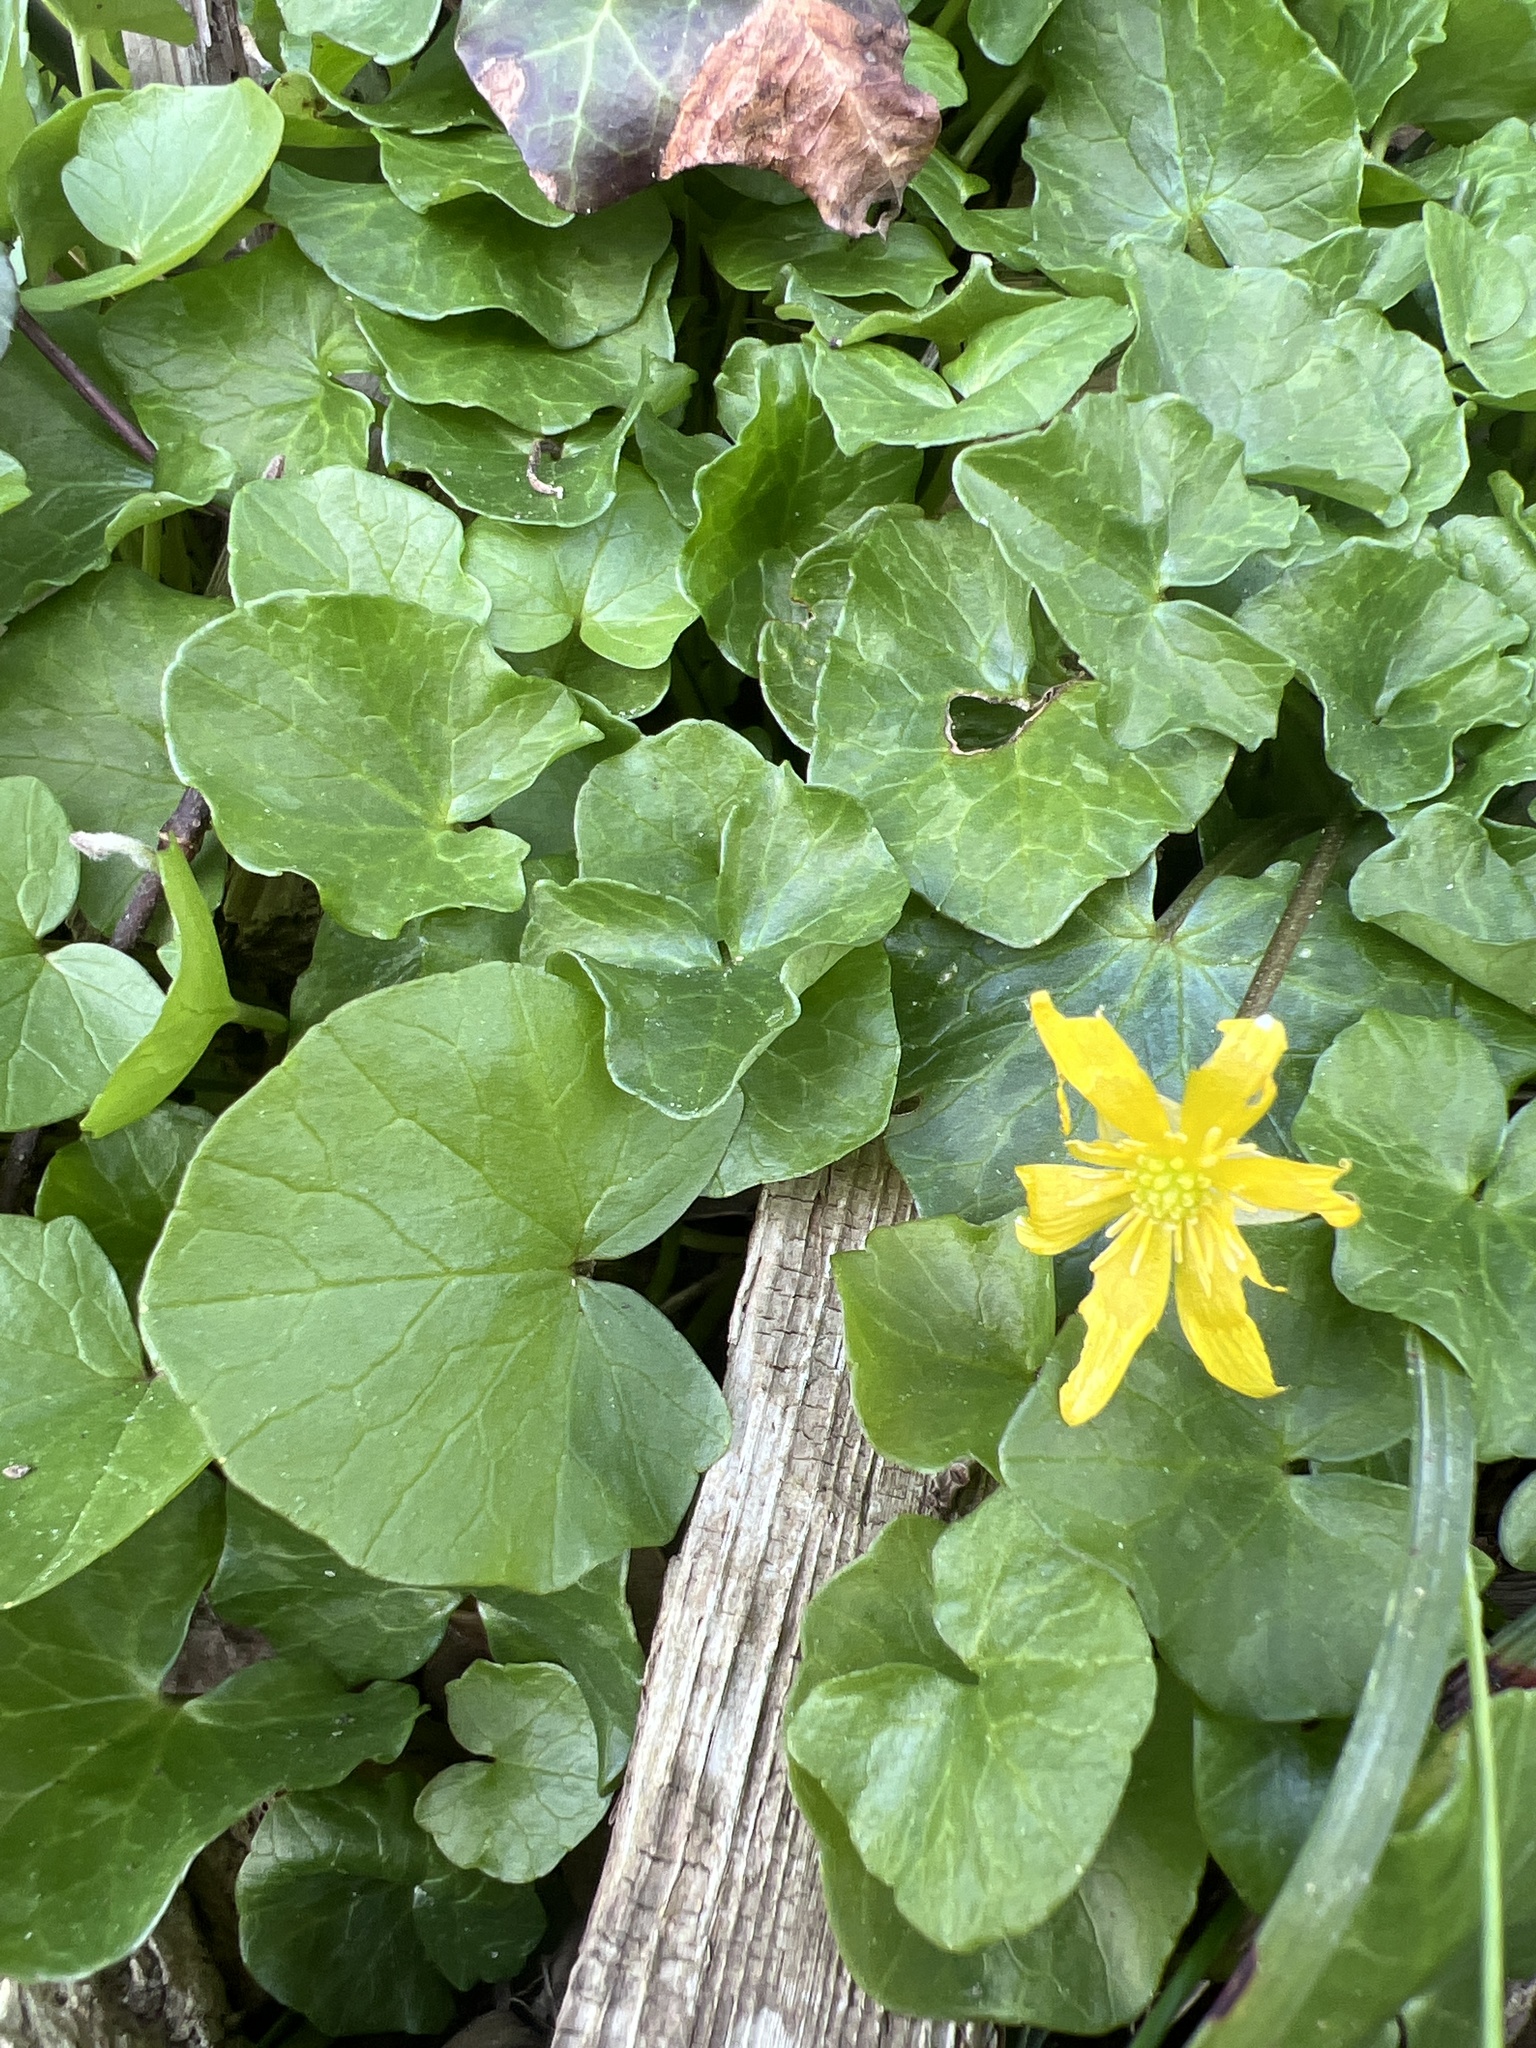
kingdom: Plantae
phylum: Tracheophyta
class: Magnoliopsida
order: Ranunculales
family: Ranunculaceae
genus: Ficaria
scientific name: Ficaria verna
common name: Lesser celandine
